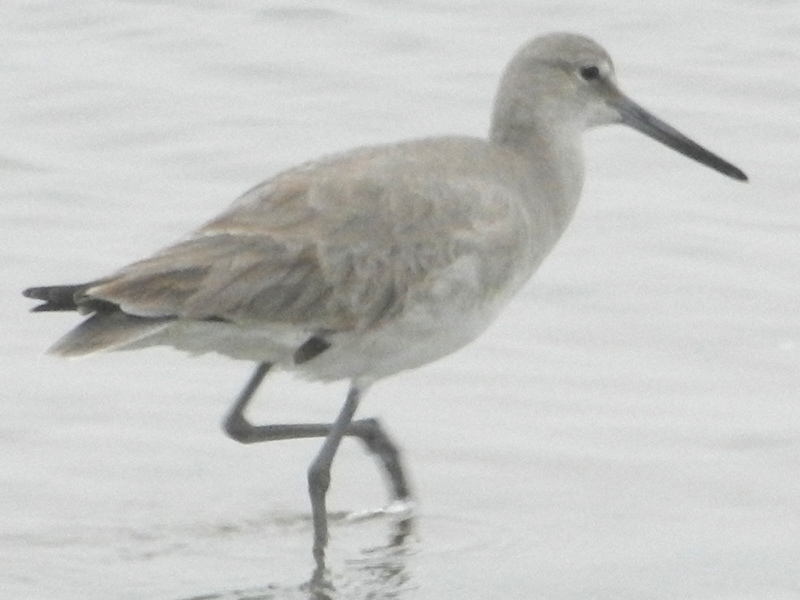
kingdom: Animalia
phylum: Chordata
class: Aves
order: Charadriiformes
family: Scolopacidae
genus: Tringa
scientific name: Tringa semipalmata
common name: Willet
